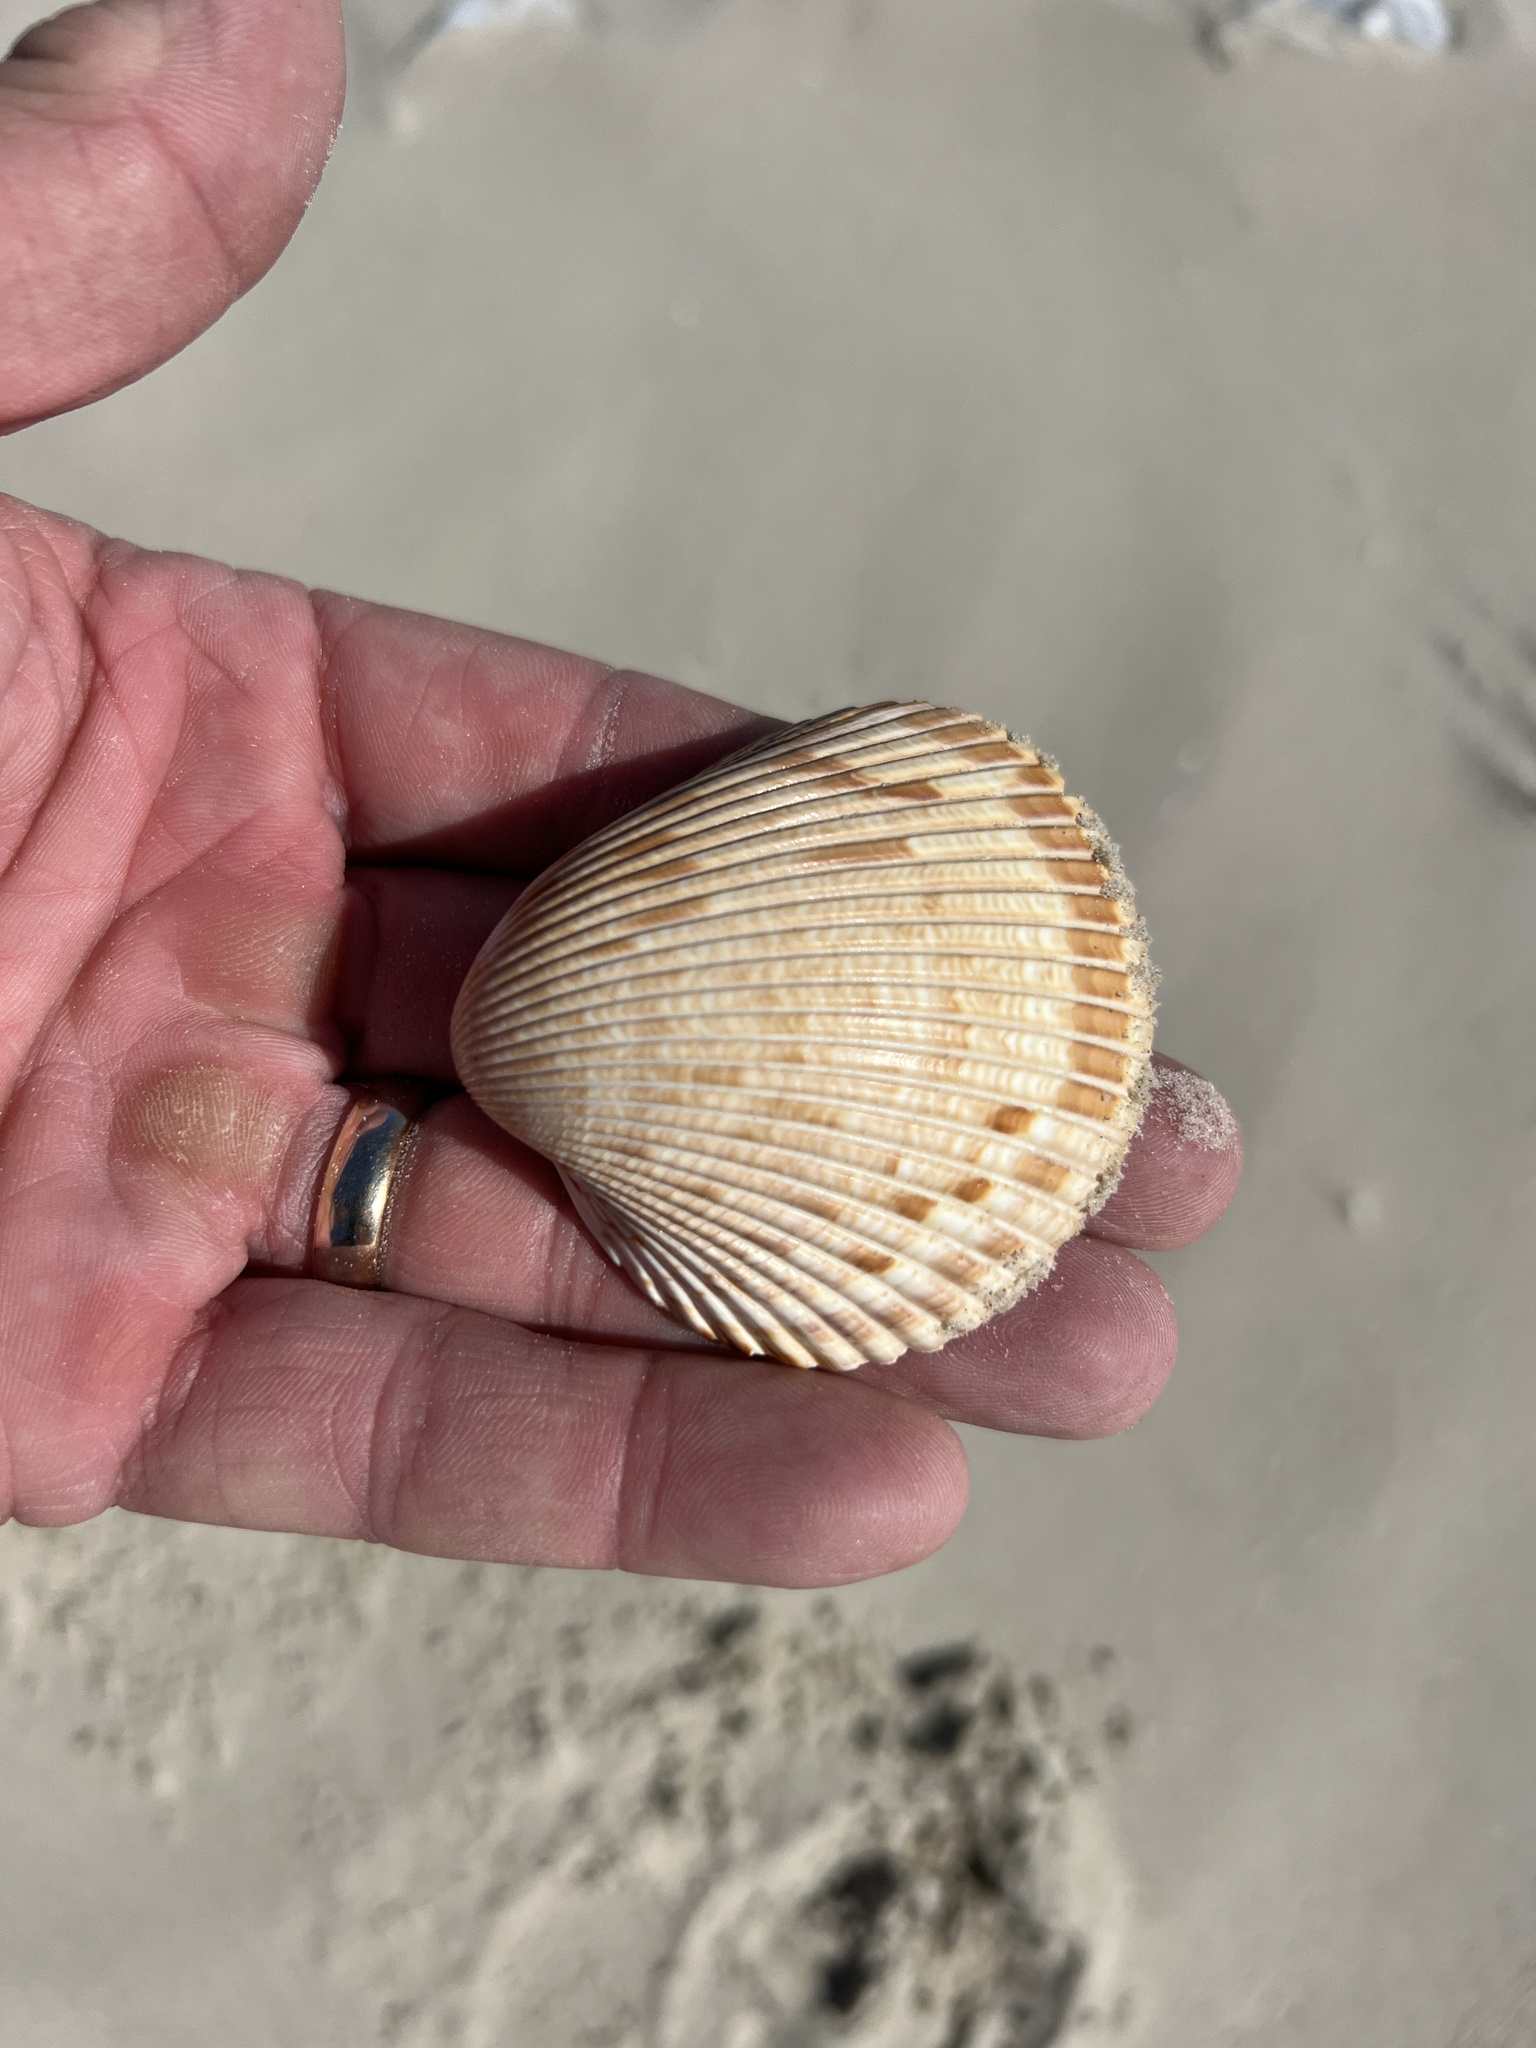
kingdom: Animalia
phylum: Mollusca
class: Bivalvia
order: Cardiida
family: Cardiidae
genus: Dinocardium
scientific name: Dinocardium robustum
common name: Atlantic giant cockle
